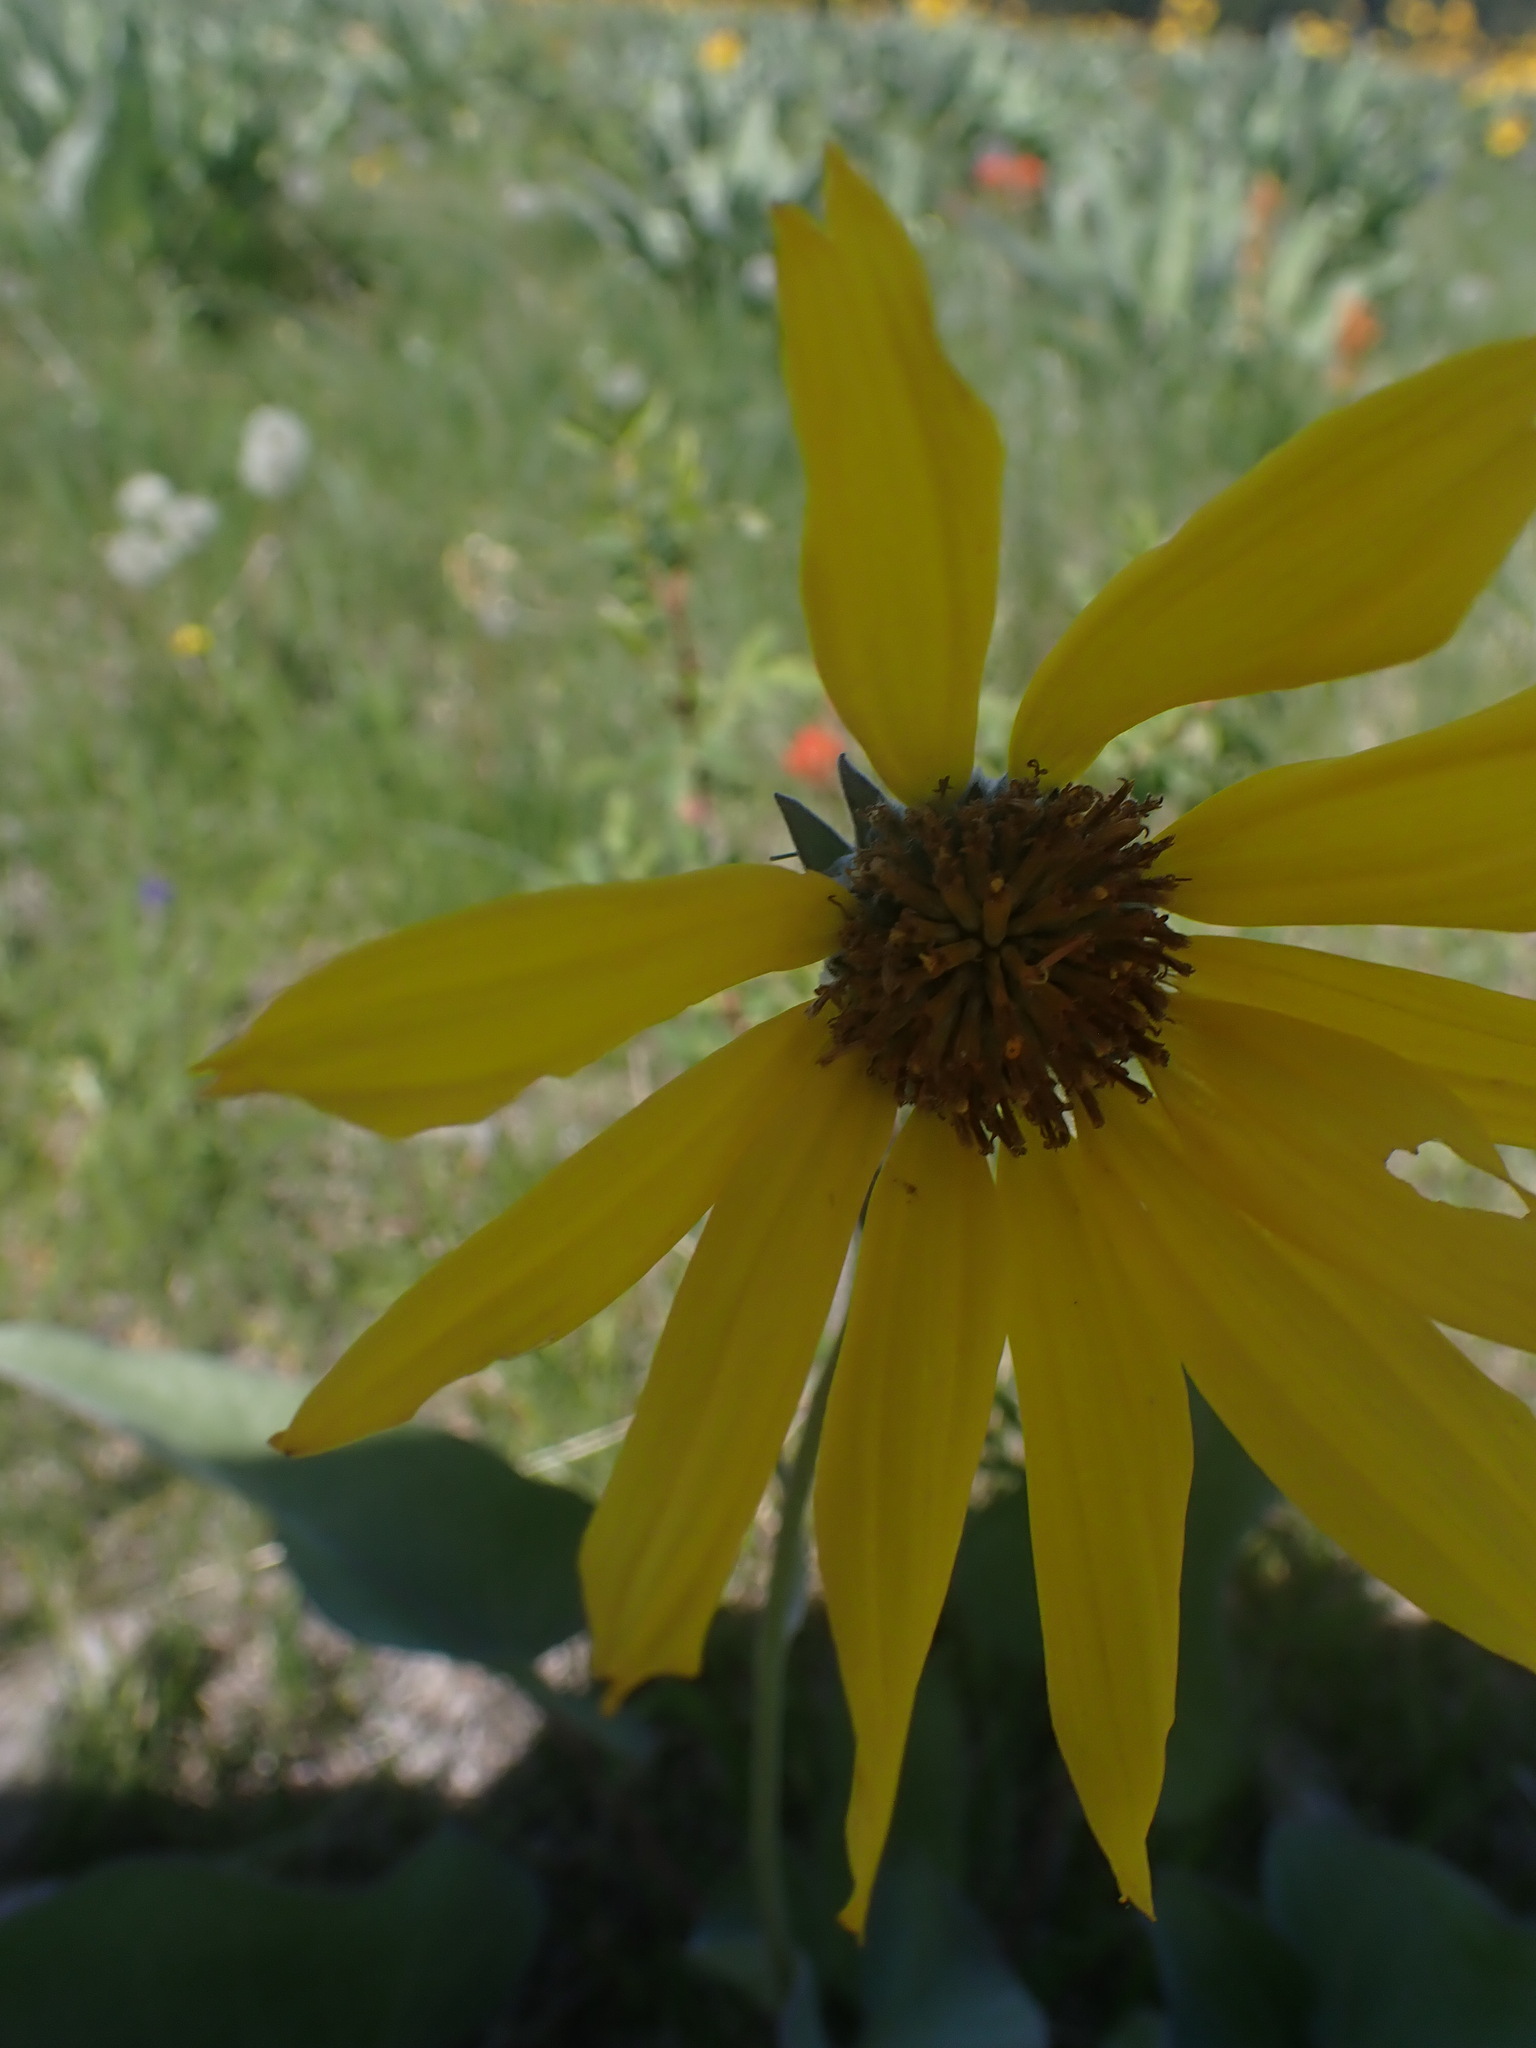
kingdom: Plantae
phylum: Tracheophyta
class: Magnoliopsida
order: Asterales
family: Asteraceae
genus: Wyethia
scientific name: Wyethia sagittata
